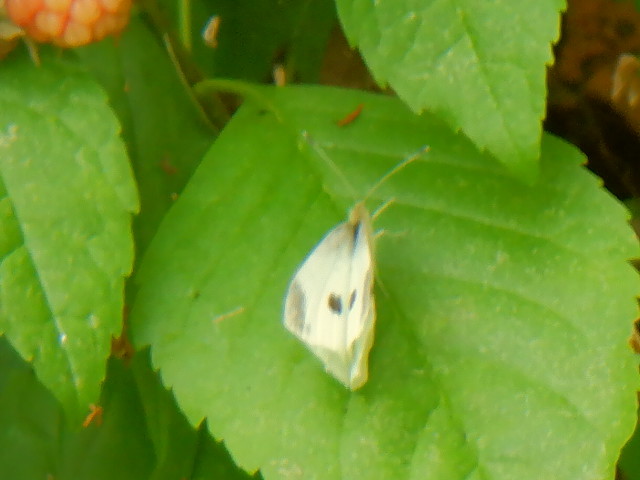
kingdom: Animalia
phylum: Arthropoda
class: Insecta
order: Lepidoptera
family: Pieridae
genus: Pieris
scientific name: Pieris rapae
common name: Small white
